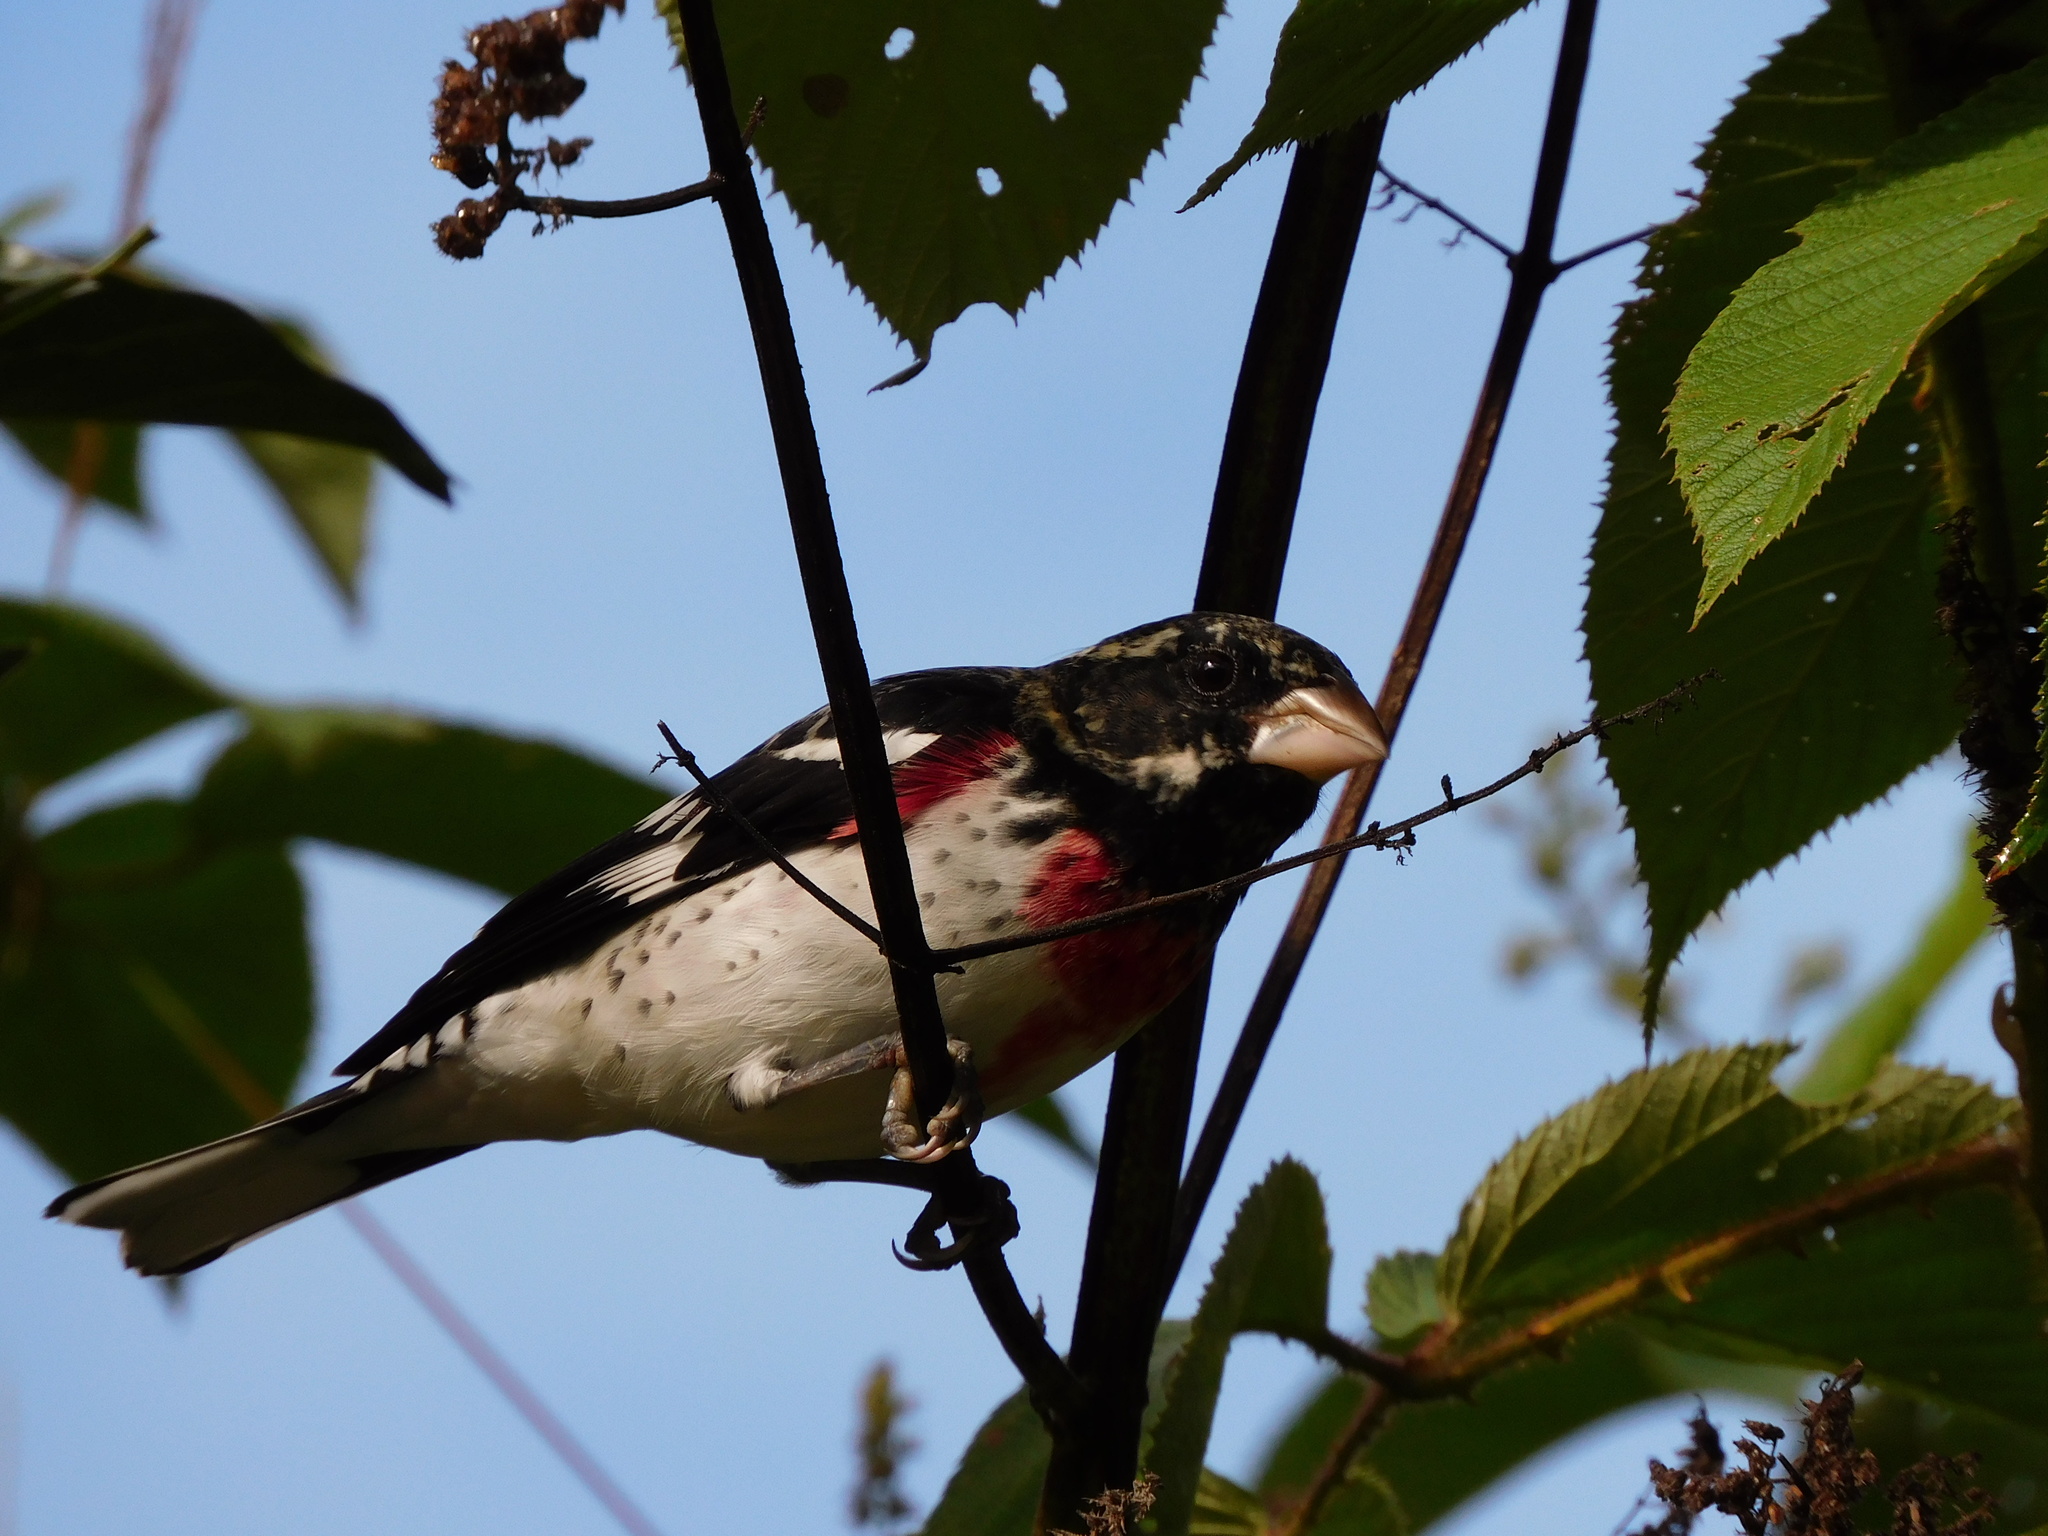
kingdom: Animalia
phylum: Chordata
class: Aves
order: Passeriformes
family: Cardinalidae
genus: Pheucticus
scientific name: Pheucticus ludovicianus
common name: Rose-breasted grosbeak
